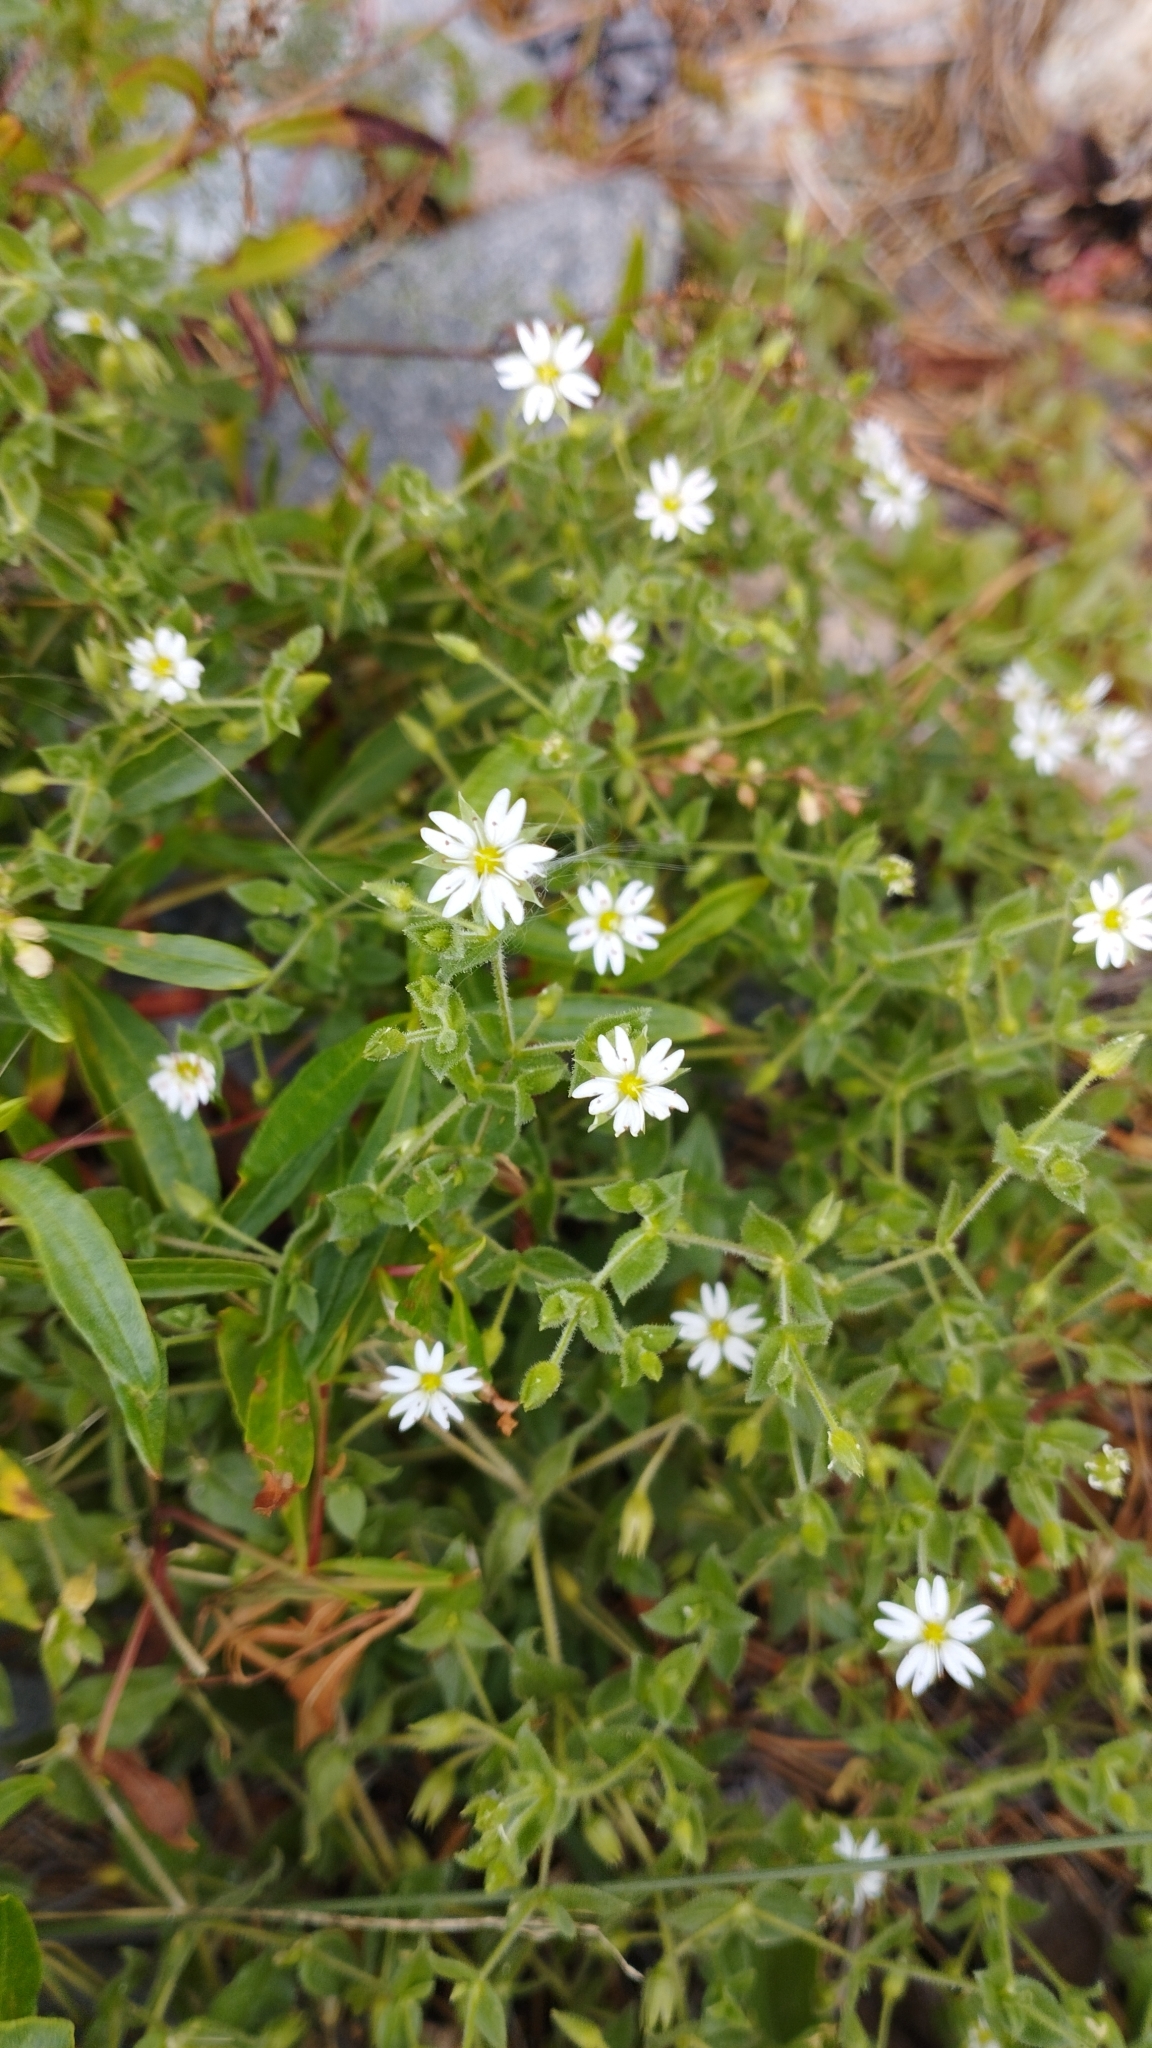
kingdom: Plantae
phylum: Tracheophyta
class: Magnoliopsida
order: Caryophyllales
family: Caryophyllaceae
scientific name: Caryophyllaceae
